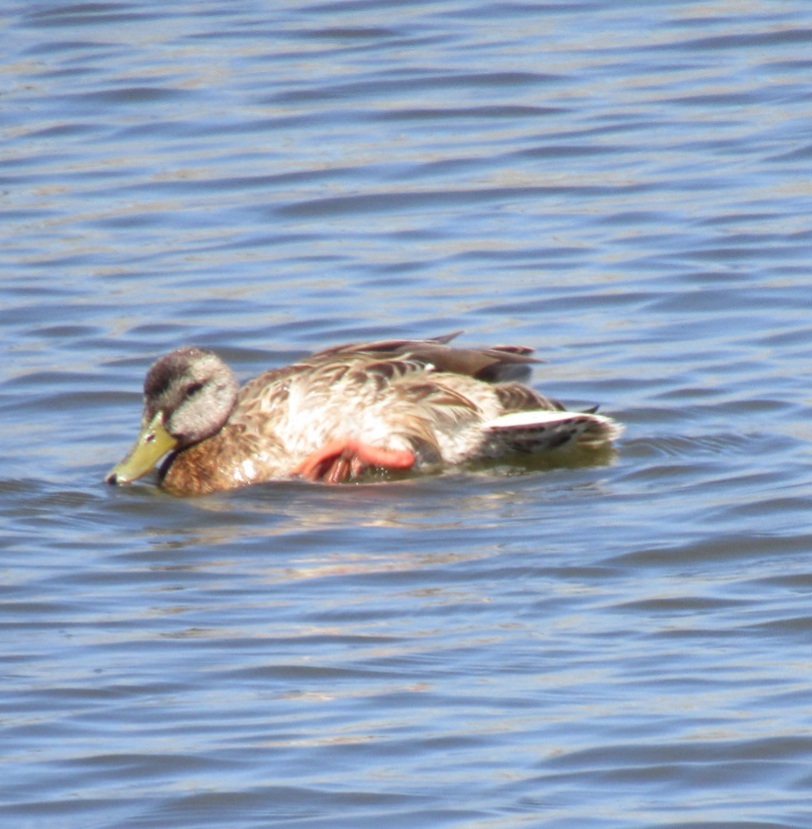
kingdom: Animalia
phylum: Chordata
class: Aves
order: Anseriformes
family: Anatidae
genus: Anas
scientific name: Anas platyrhynchos
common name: Mallard
